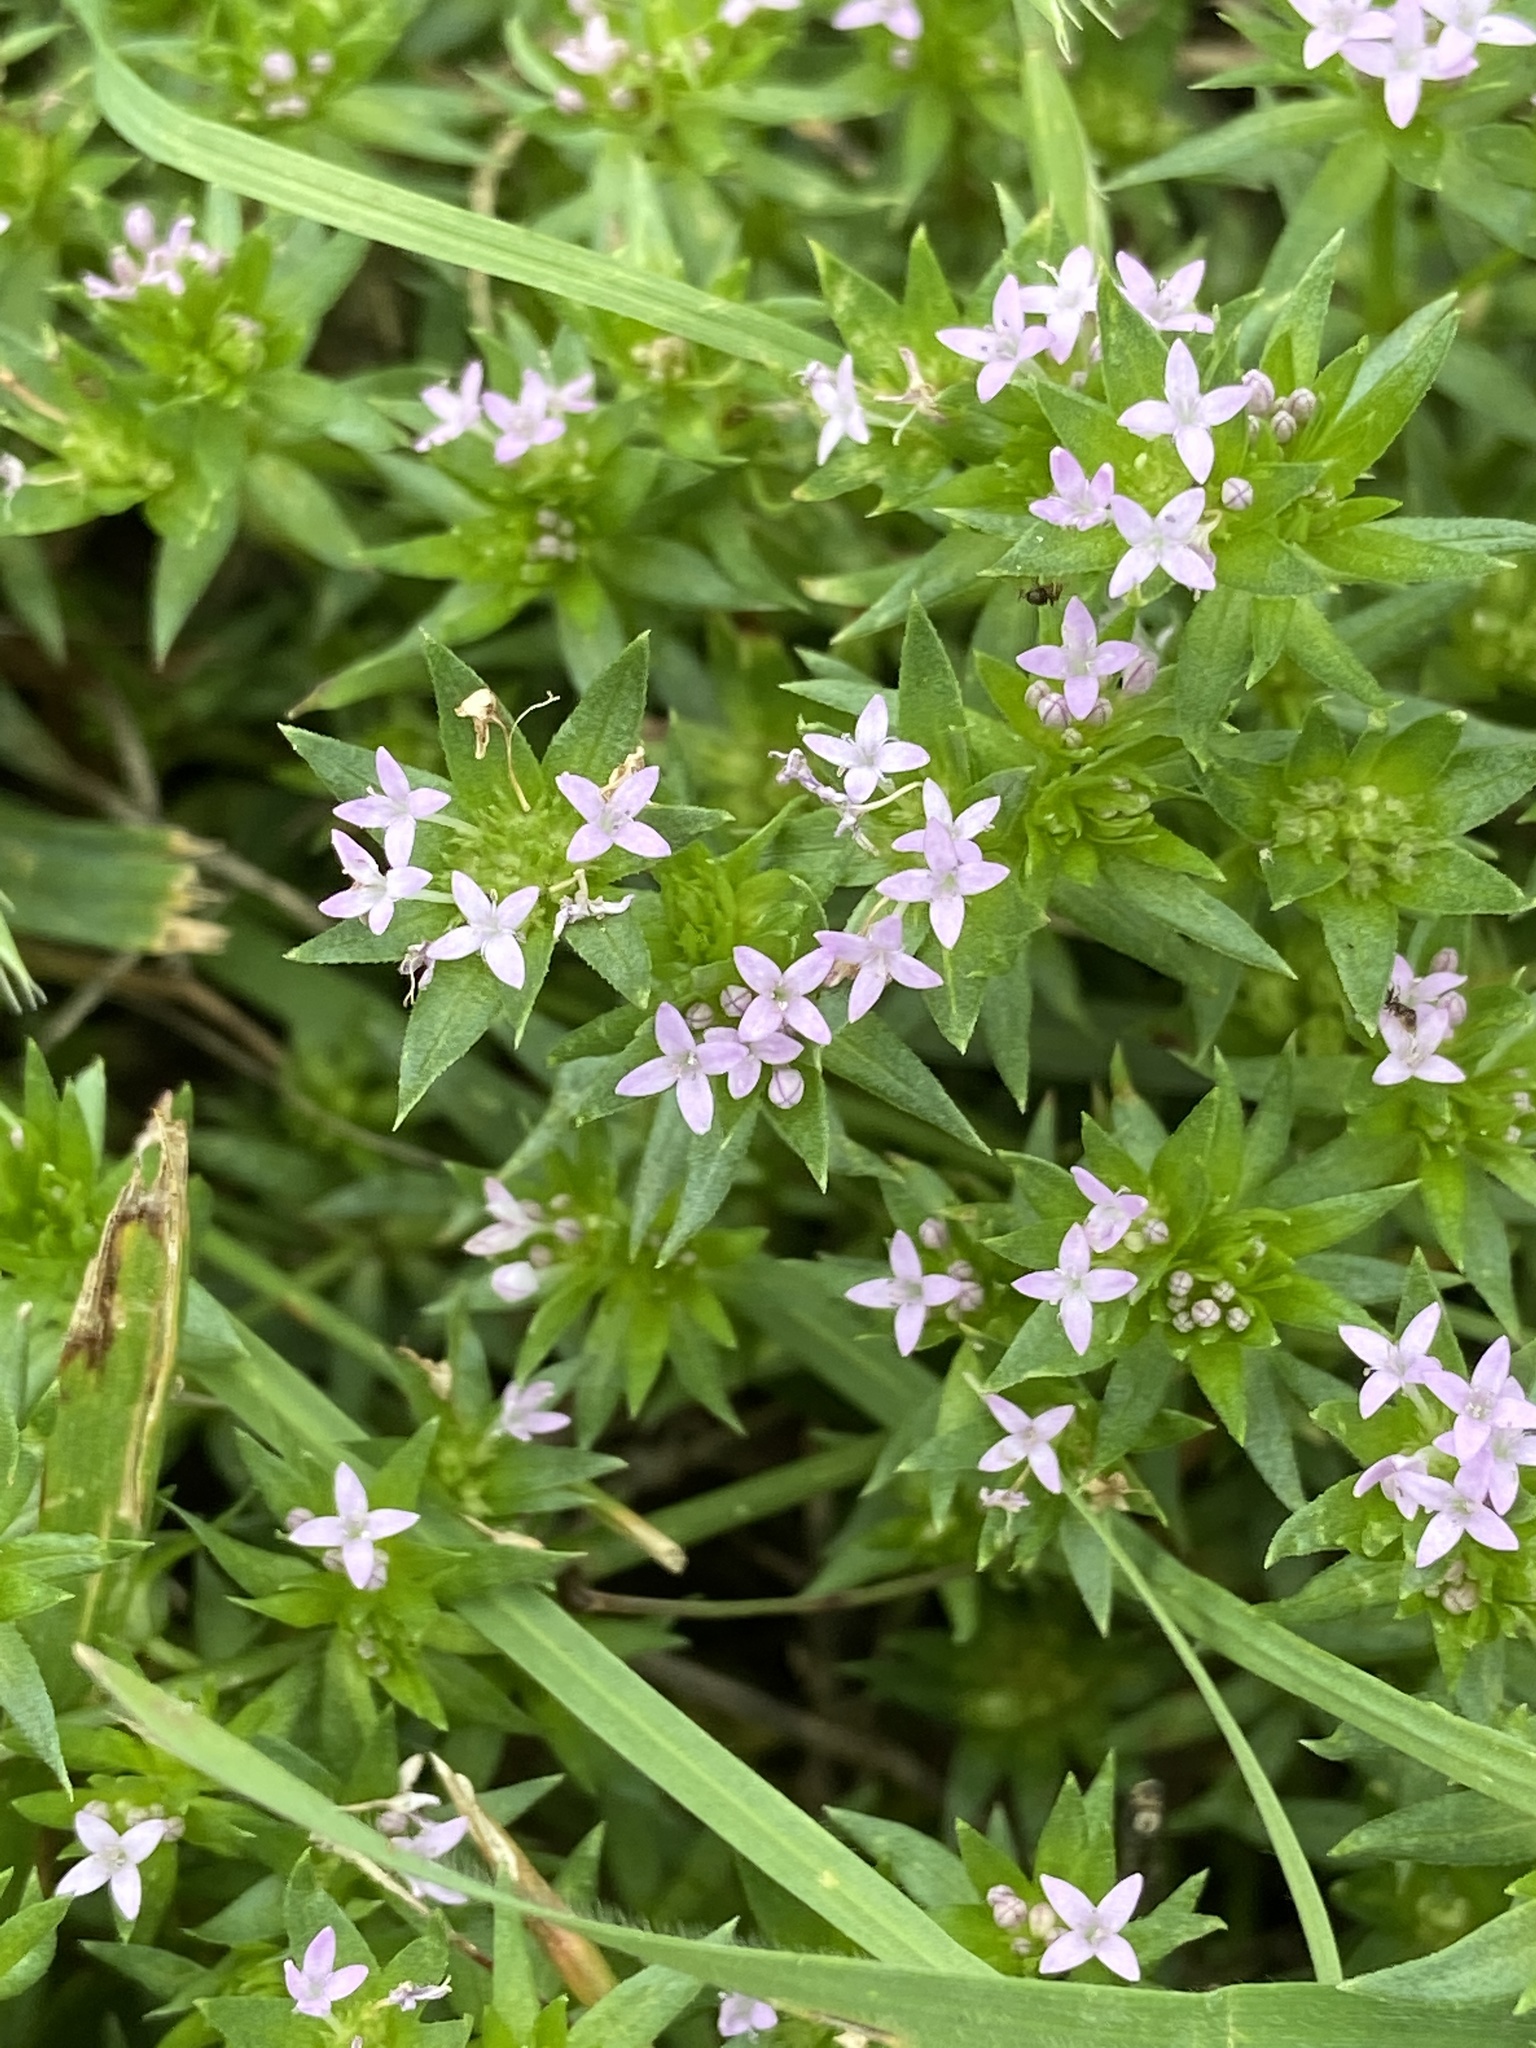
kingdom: Plantae
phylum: Tracheophyta
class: Magnoliopsida
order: Gentianales
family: Rubiaceae
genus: Sherardia
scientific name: Sherardia arvensis
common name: Field madder
